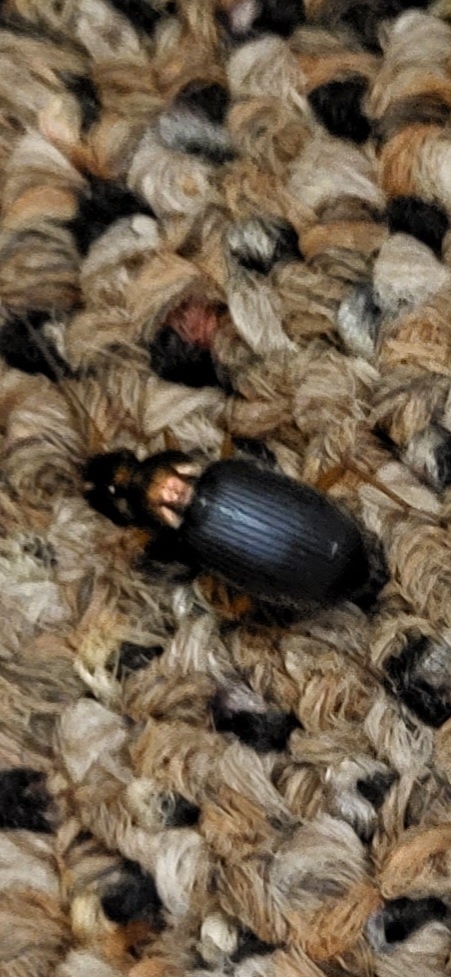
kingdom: Animalia
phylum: Arthropoda
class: Insecta
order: Coleoptera
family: Carabidae
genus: Chlaenius
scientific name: Chlaenius tricolor
